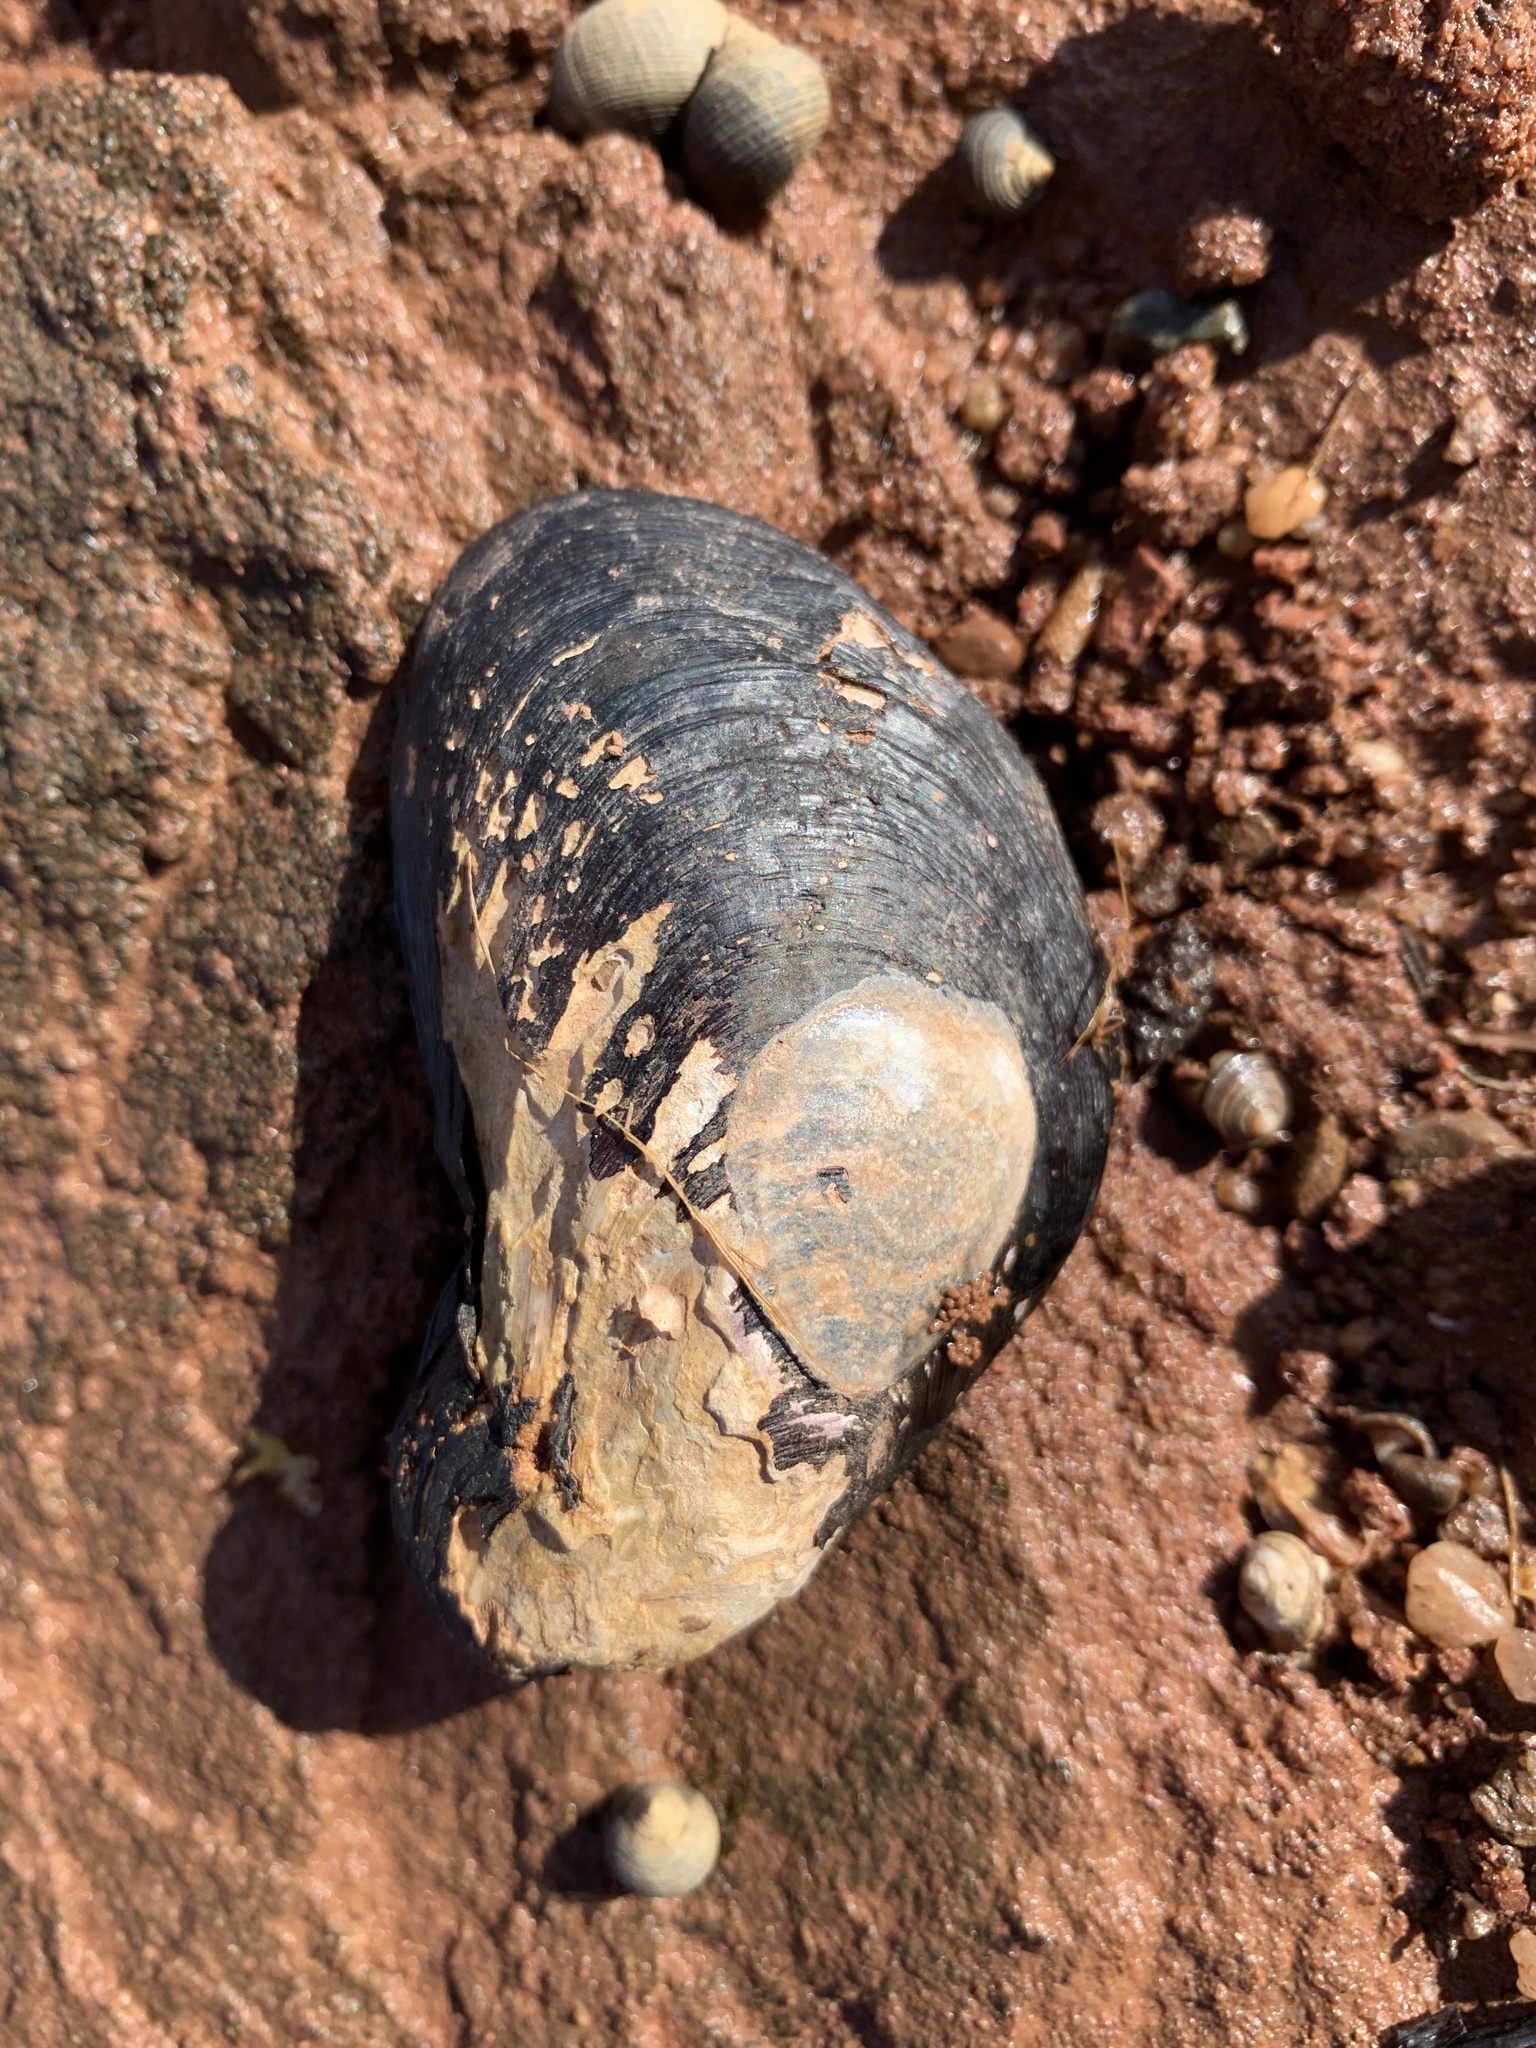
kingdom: Animalia
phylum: Mollusca
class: Bivalvia
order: Mytilida
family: Mytilidae
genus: Modiolus
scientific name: Modiolus modiolus
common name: Horse-mussel
